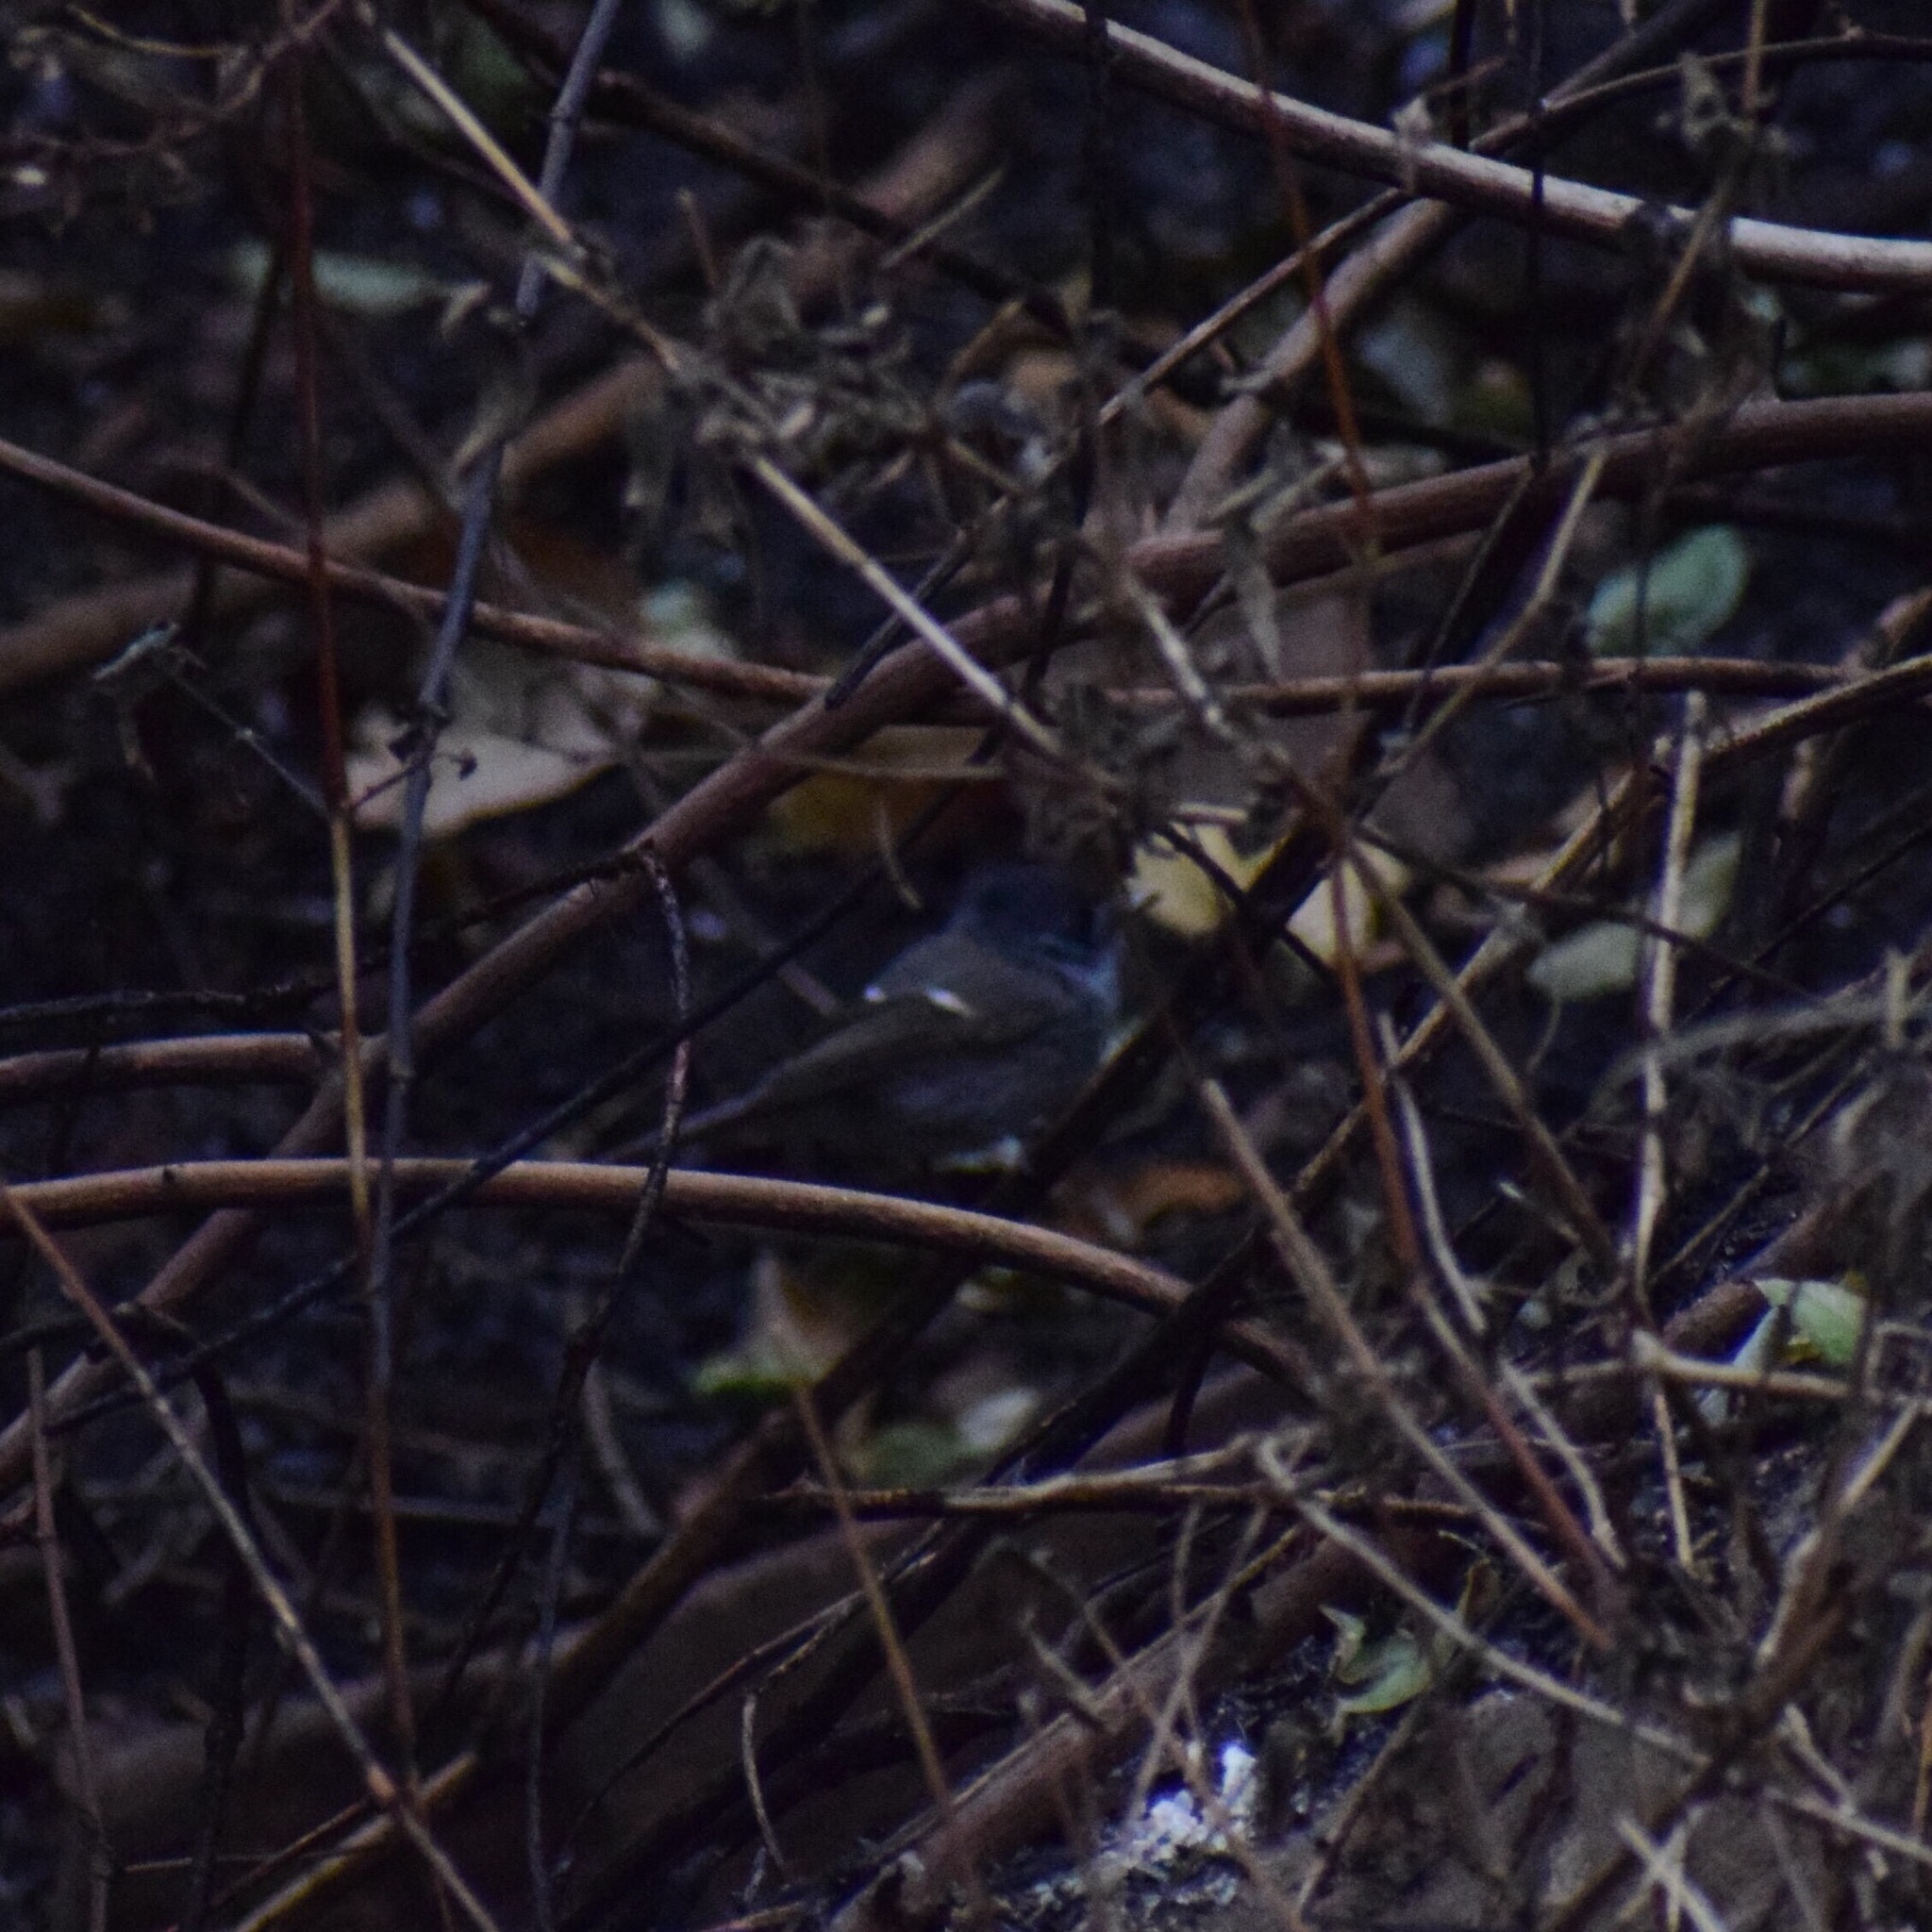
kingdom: Animalia
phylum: Chordata
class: Aves
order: Passeriformes
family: Monarchidae
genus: Trochocercus
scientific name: Trochocercus cyanomelas
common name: Blue-mantled crested flycatcher
